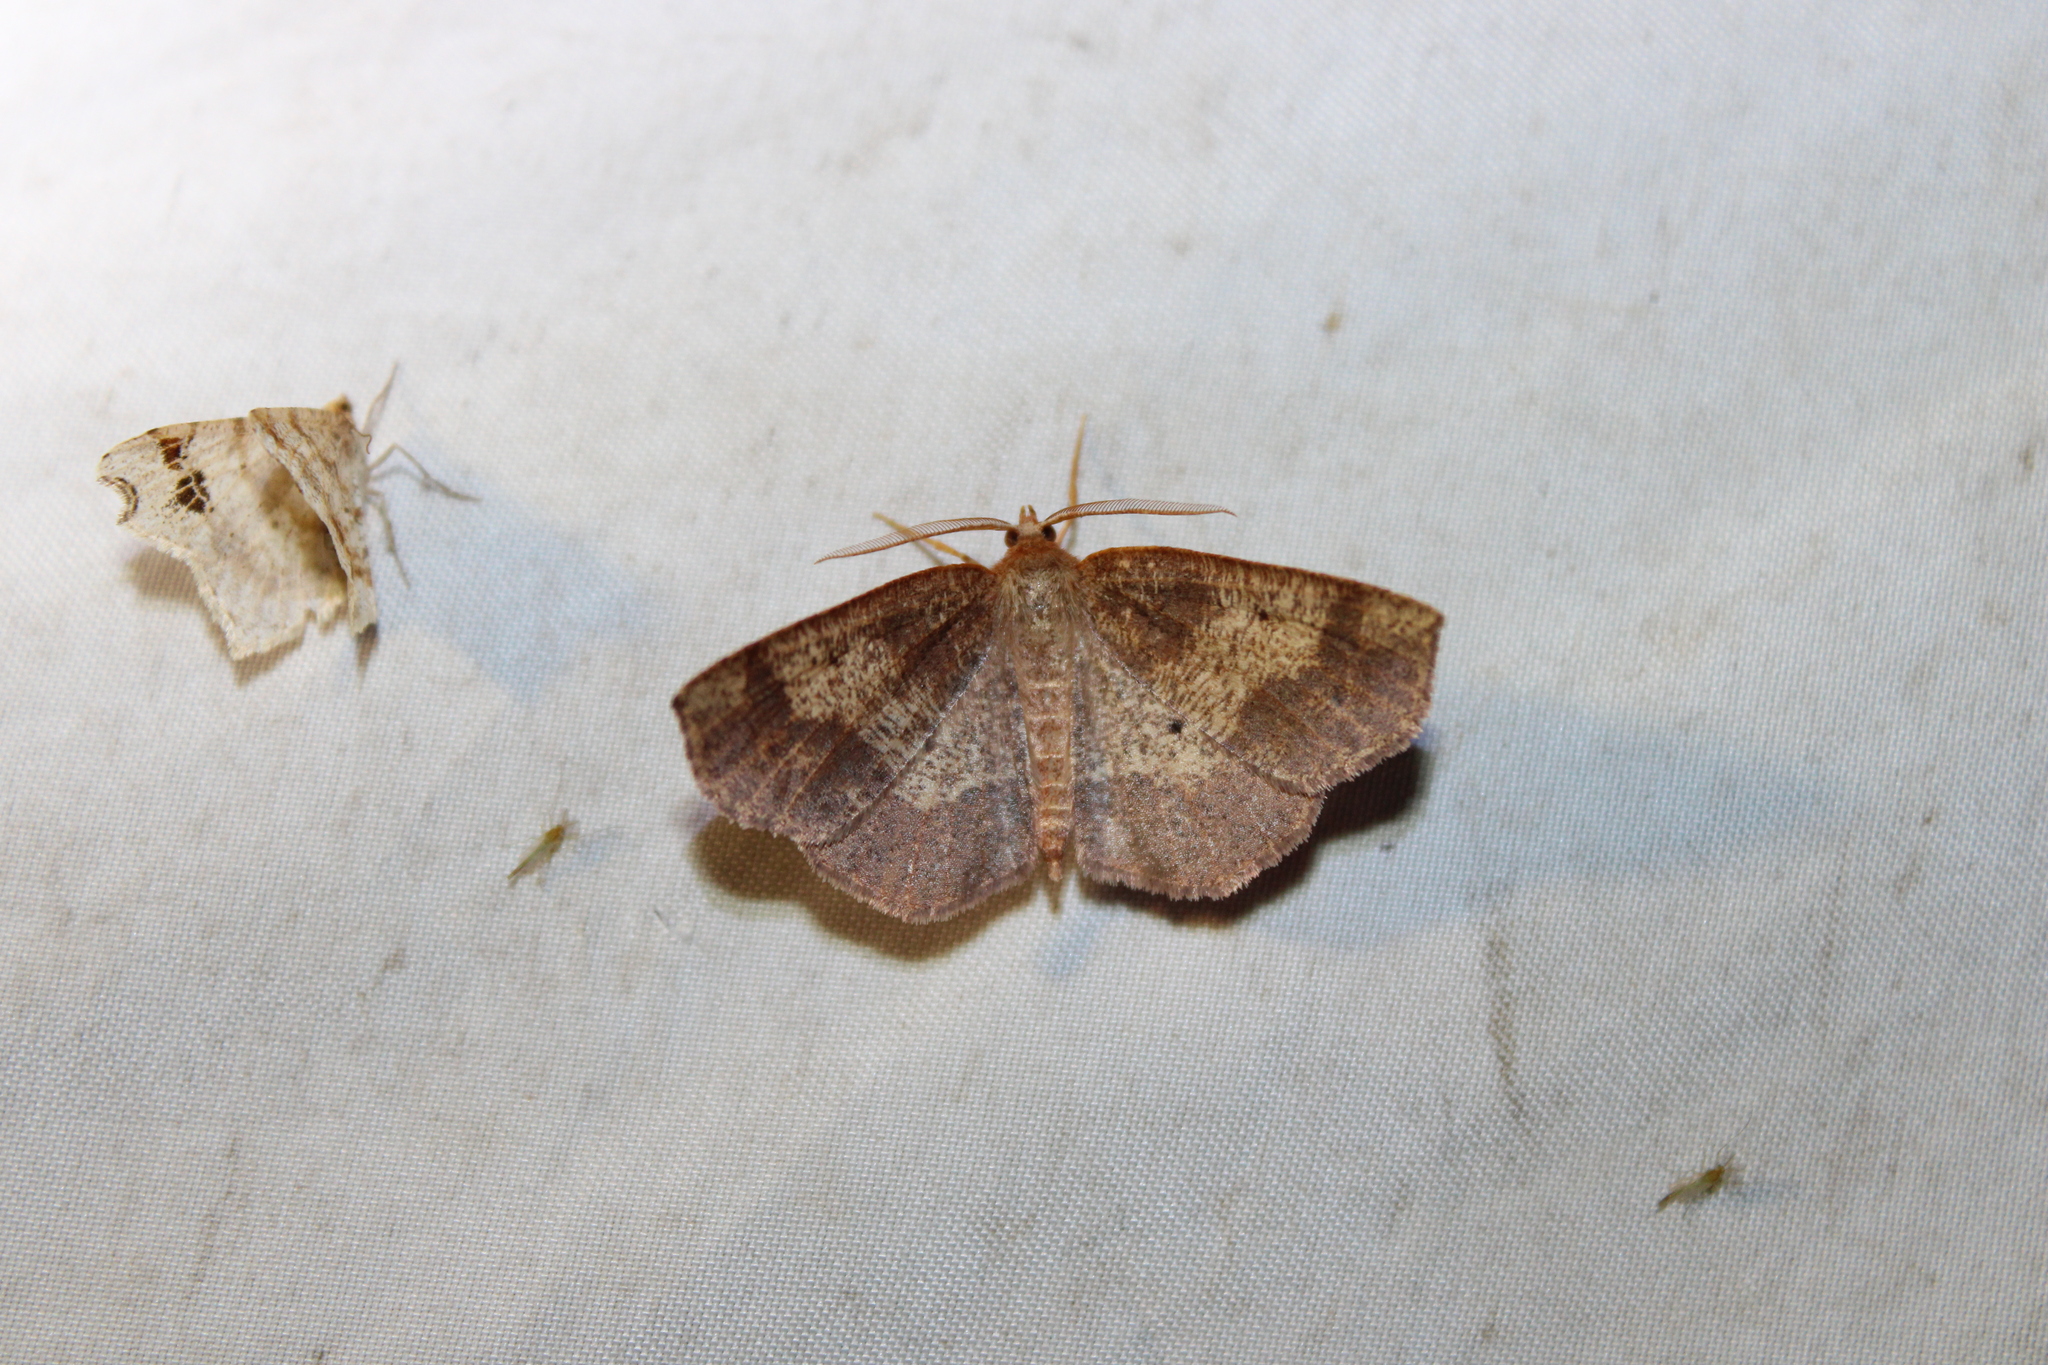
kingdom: Animalia
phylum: Arthropoda
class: Insecta
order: Lepidoptera
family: Geometridae
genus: Metarranthis
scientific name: Metarranthis angularia
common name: Angled metarranthis moth
